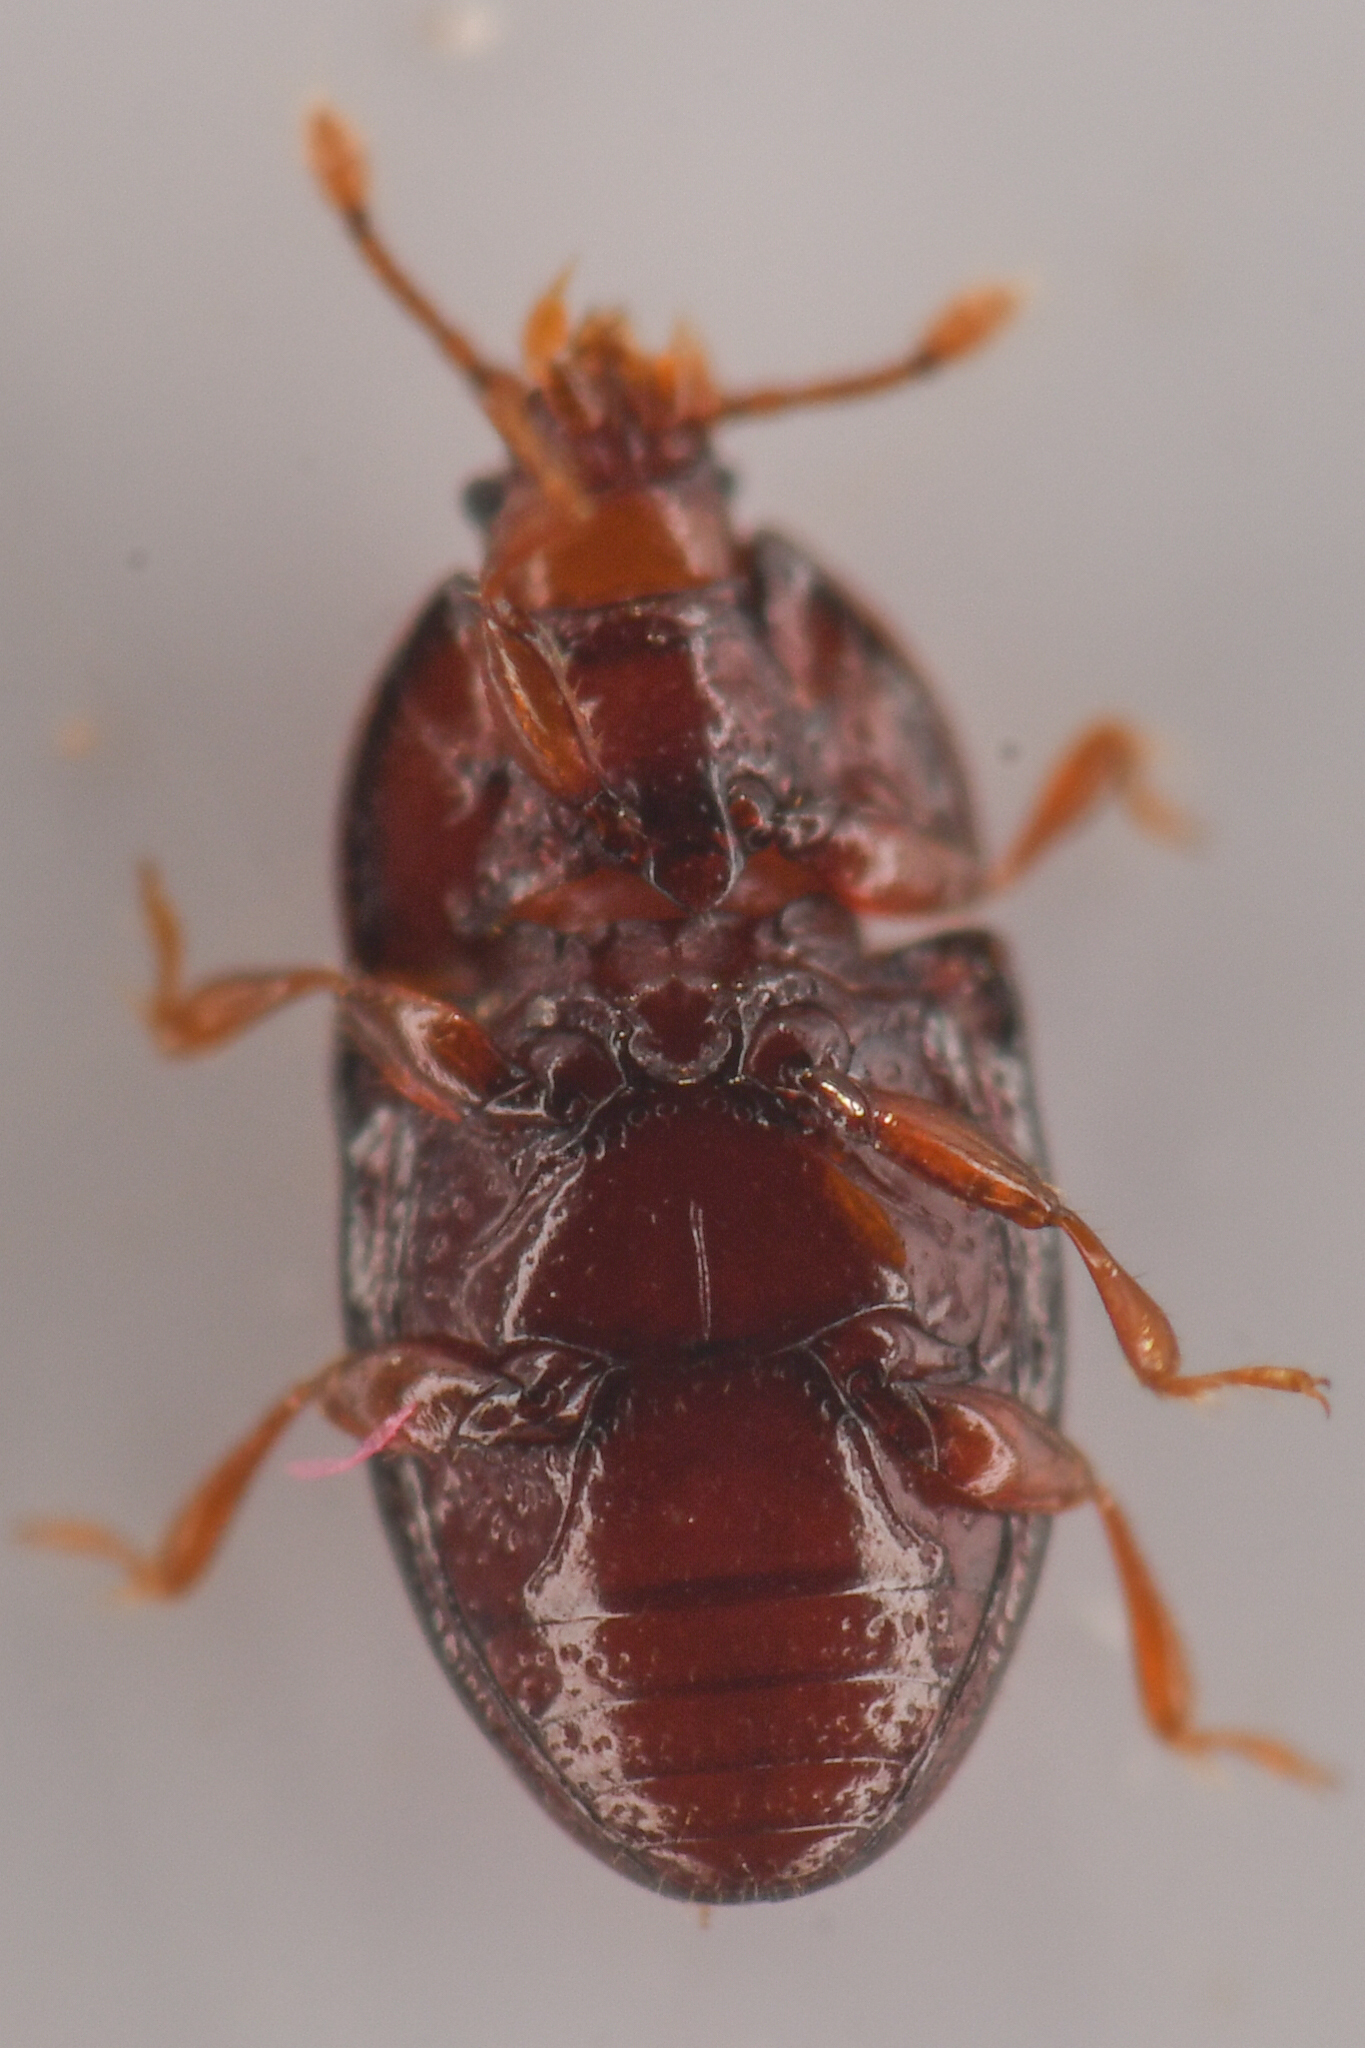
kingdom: Animalia
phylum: Arthropoda
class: Insecta
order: Coleoptera
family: Cerylonidae
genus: Mychocerus
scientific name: Mychocerus discretus
